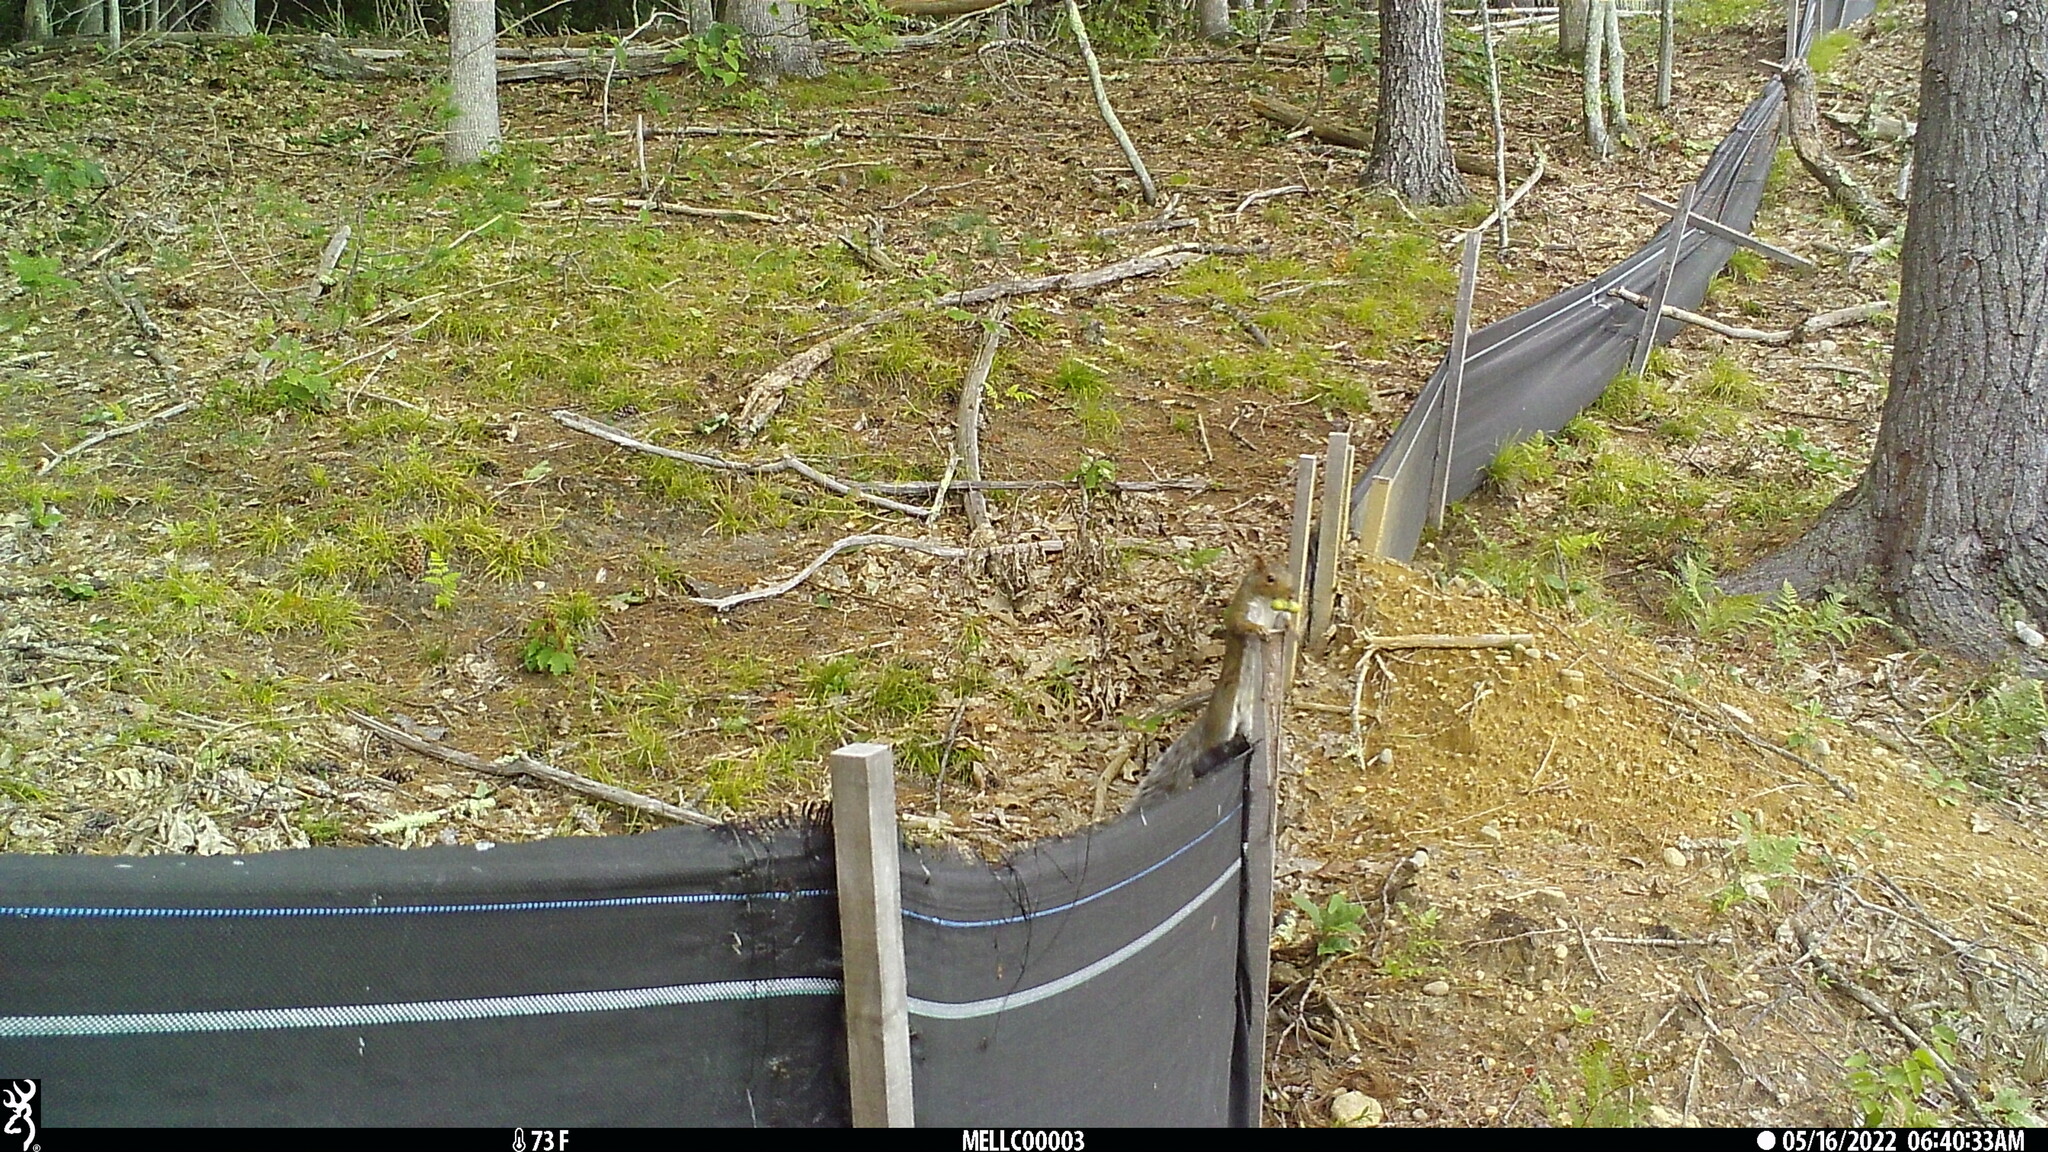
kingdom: Animalia
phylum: Chordata
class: Mammalia
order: Rodentia
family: Sciuridae
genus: Sciurus
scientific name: Sciurus carolinensis
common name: Eastern gray squirrel
